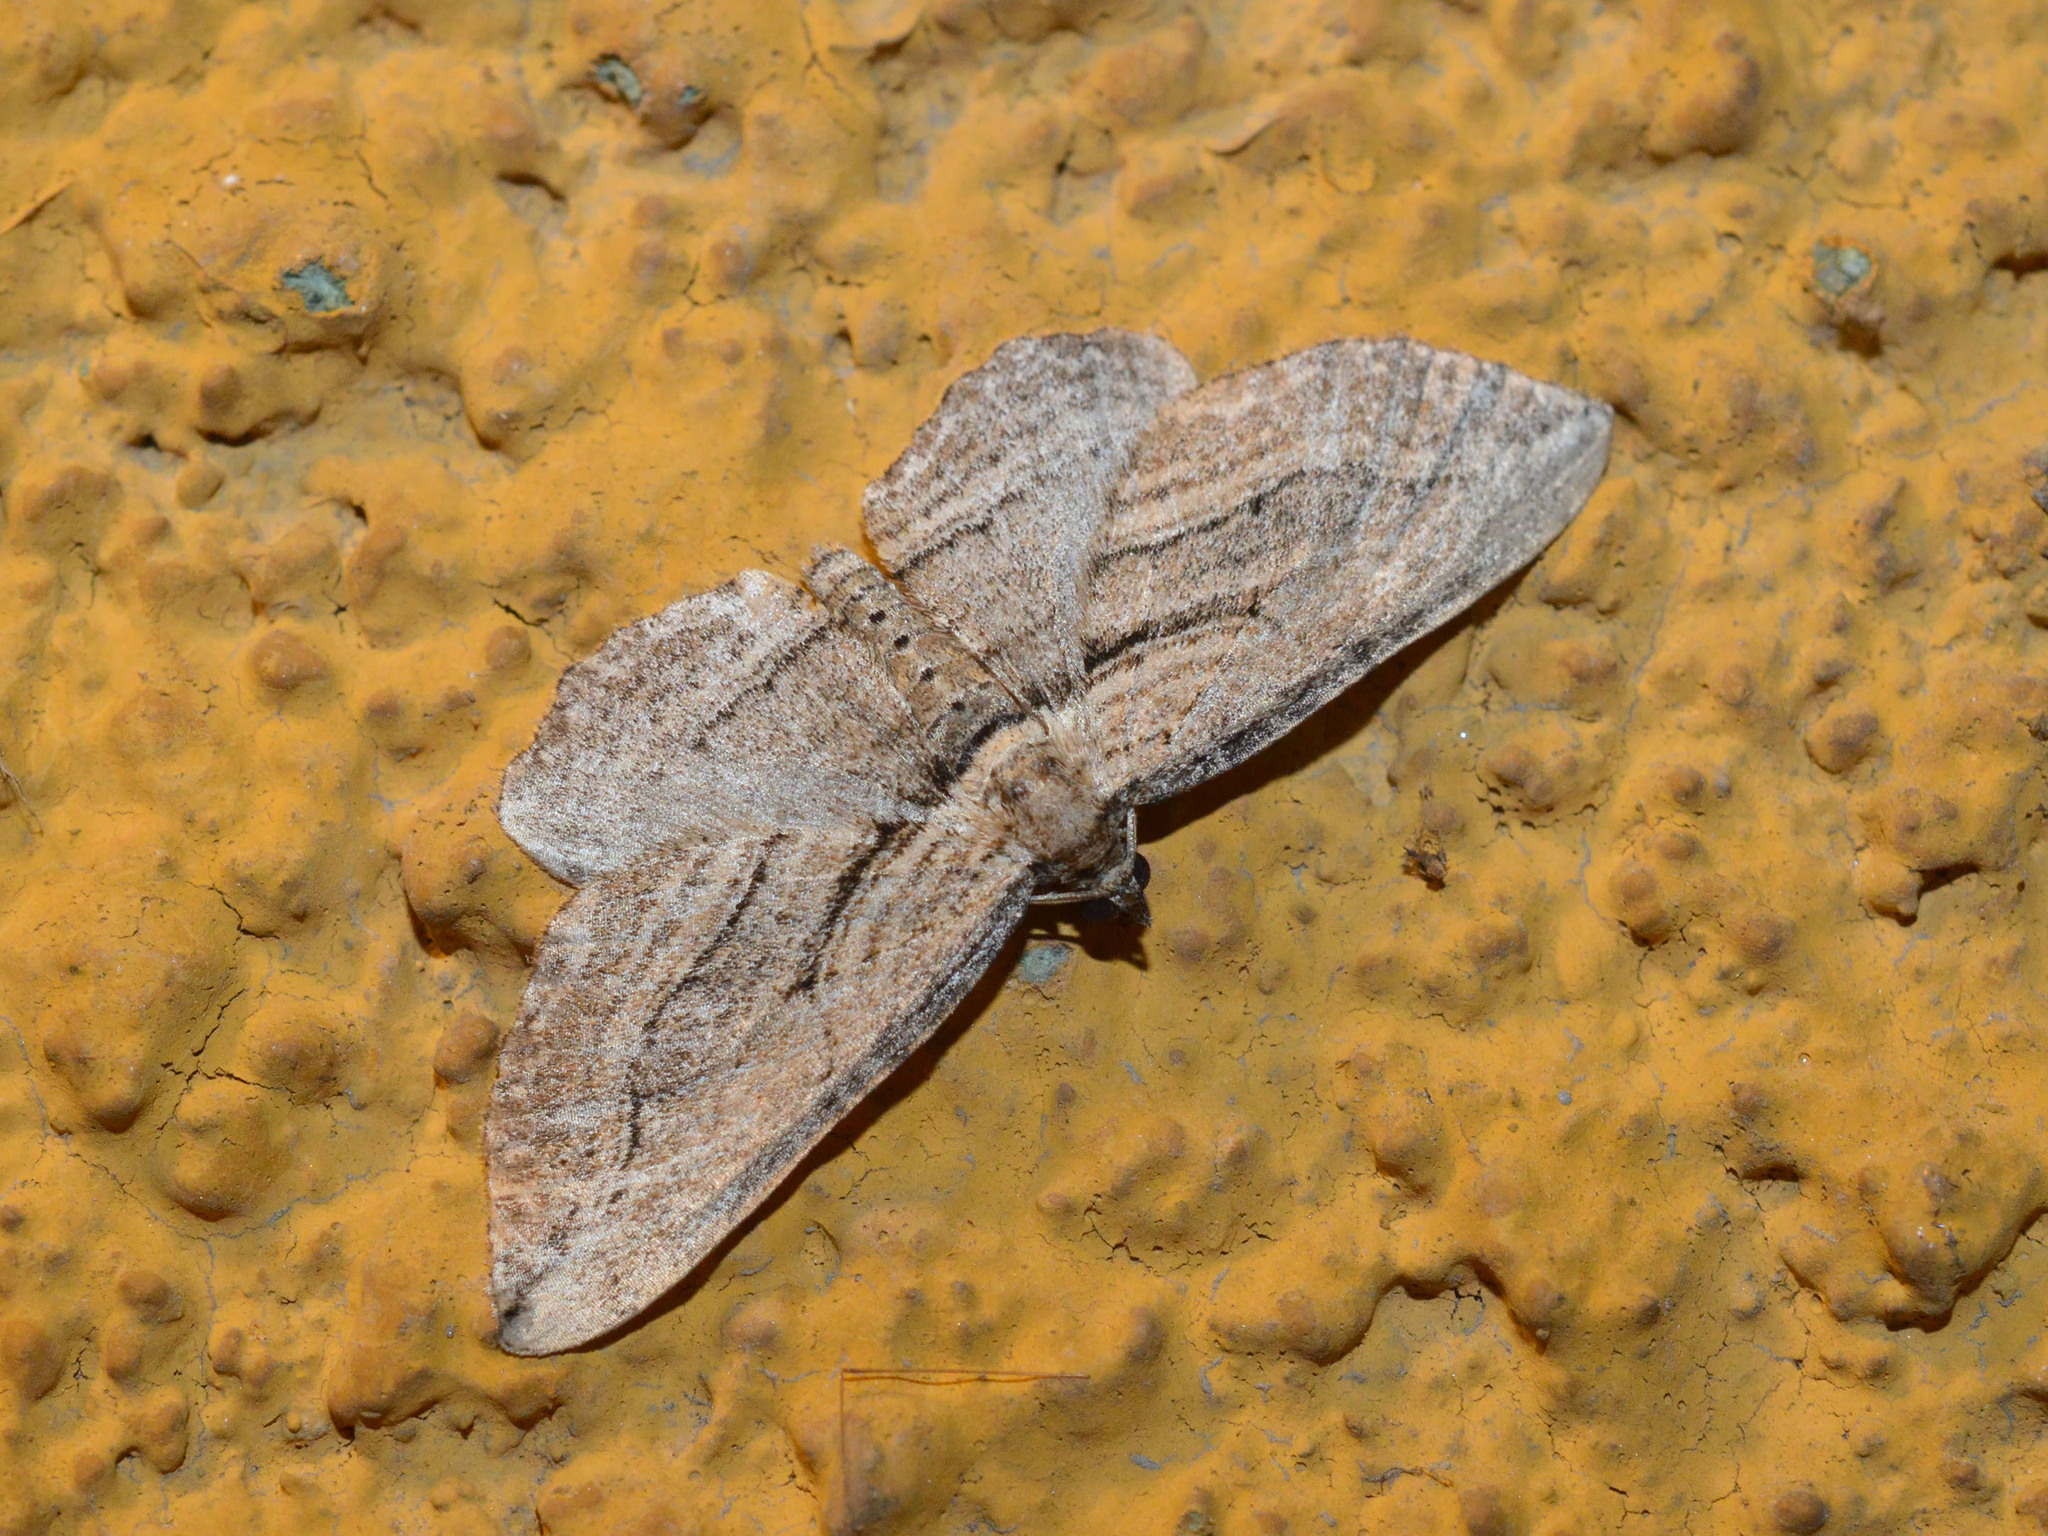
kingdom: Animalia
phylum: Arthropoda
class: Insecta
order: Lepidoptera
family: Geometridae
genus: Horisme
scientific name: Horisme corticata
